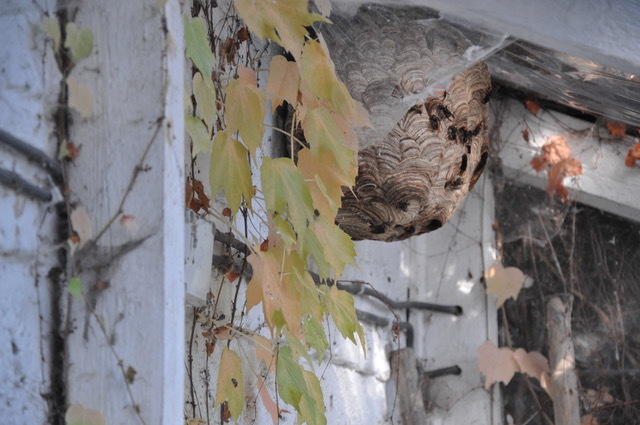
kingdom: Animalia
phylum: Arthropoda
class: Insecta
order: Hymenoptera
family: Vespidae
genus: Vespa
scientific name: Vespa velutina
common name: Asian hornet
